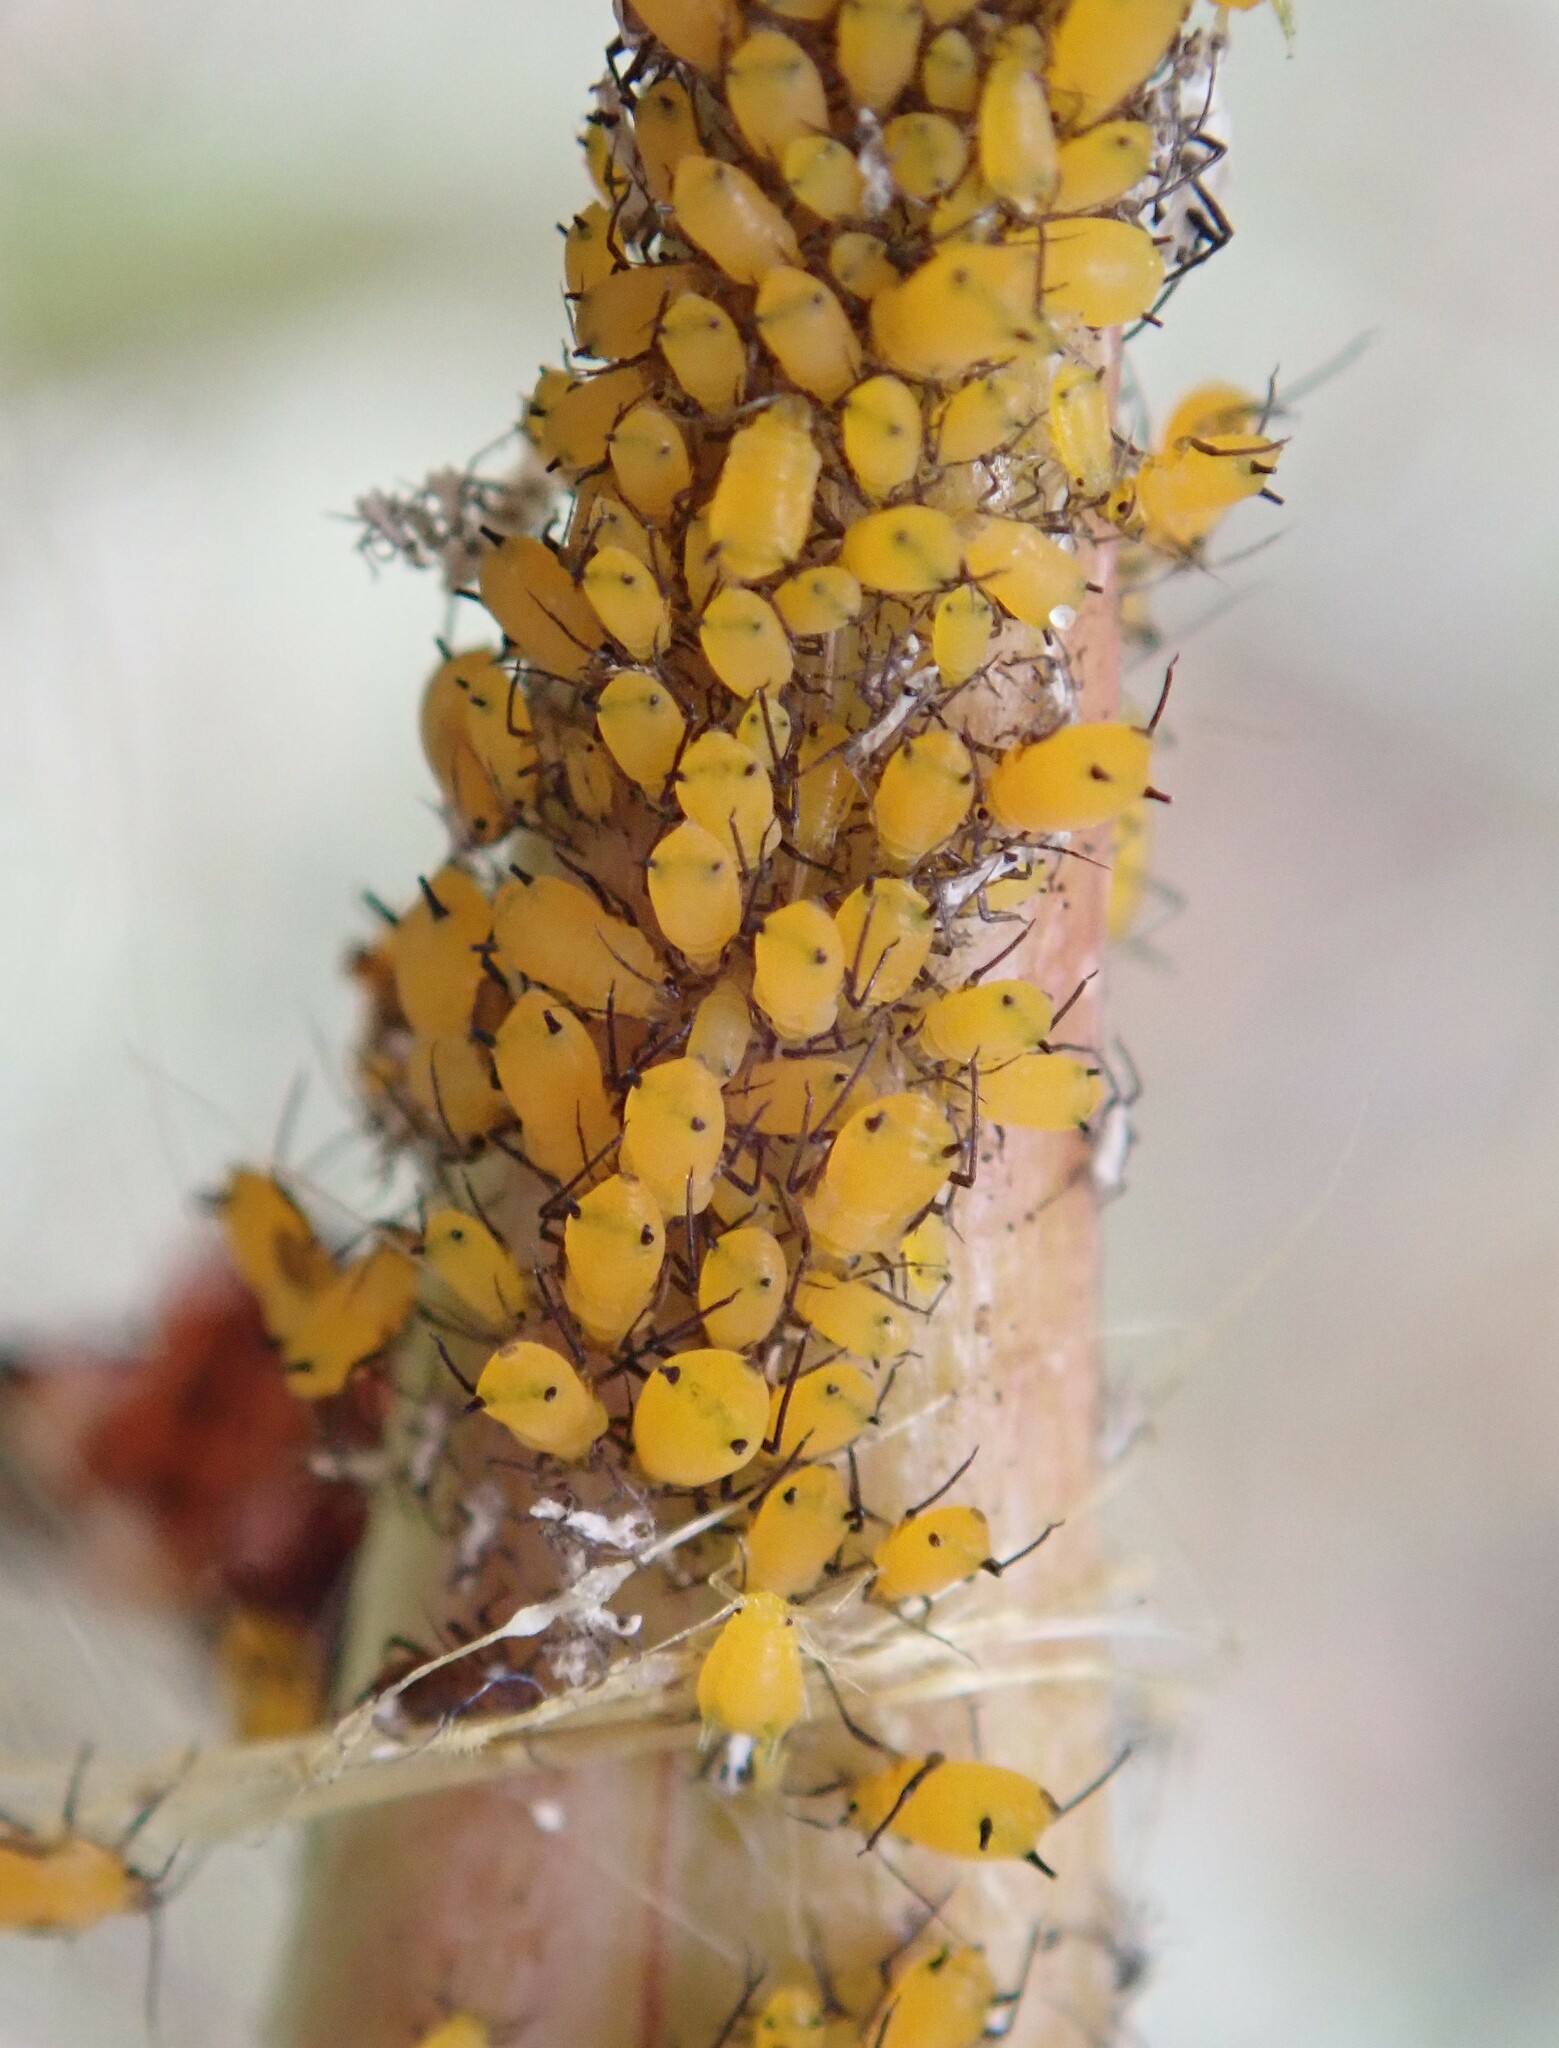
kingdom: Animalia
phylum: Arthropoda
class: Insecta
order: Hemiptera
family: Aphididae
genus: Aphis
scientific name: Aphis nerii
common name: Oleander aphid
